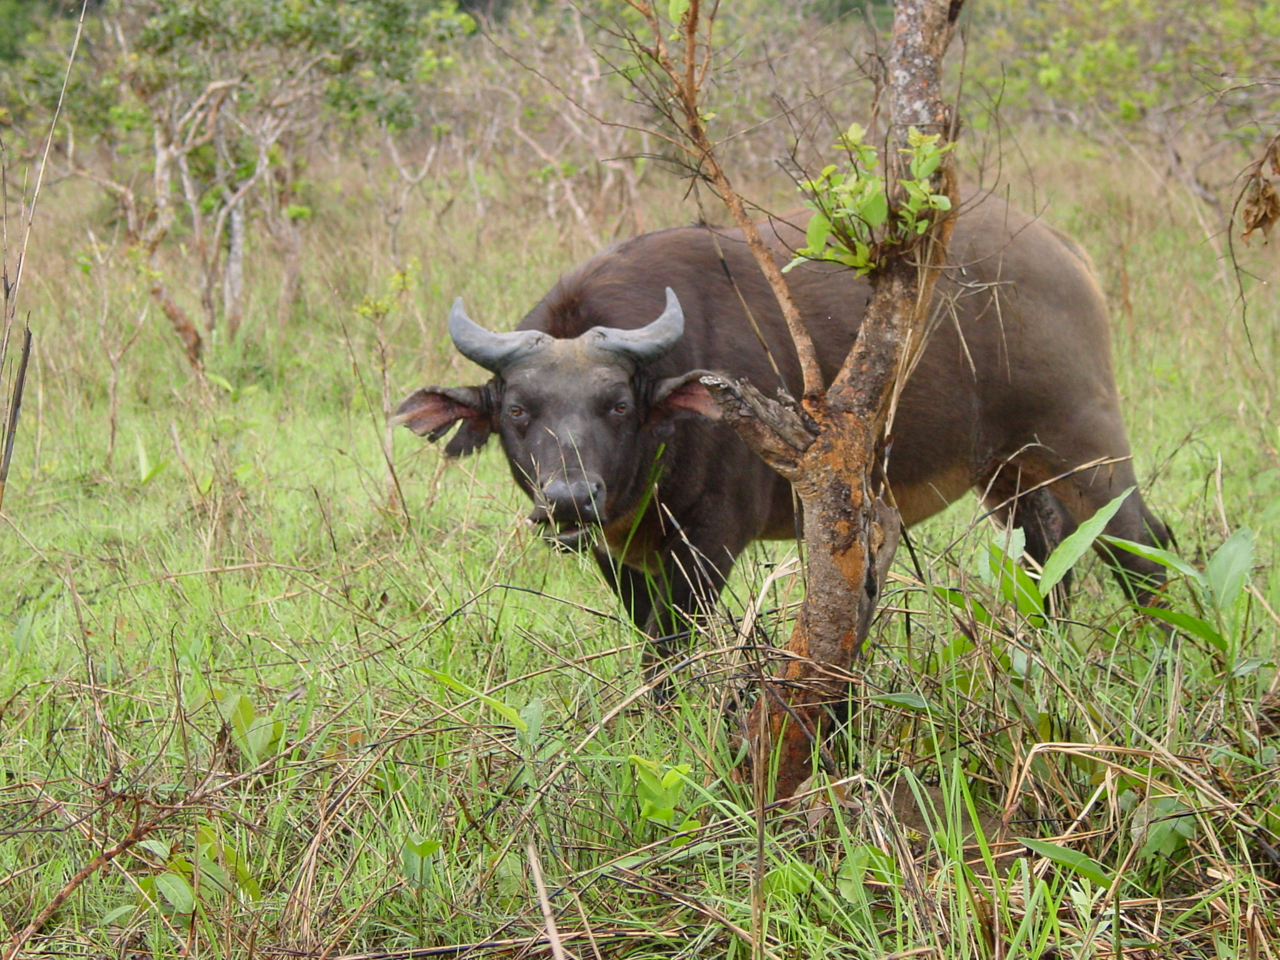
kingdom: Animalia
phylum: Chordata
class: Mammalia
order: Artiodactyla
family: Bovidae
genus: Syncerus
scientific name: Syncerus caffer
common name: African buffalo
